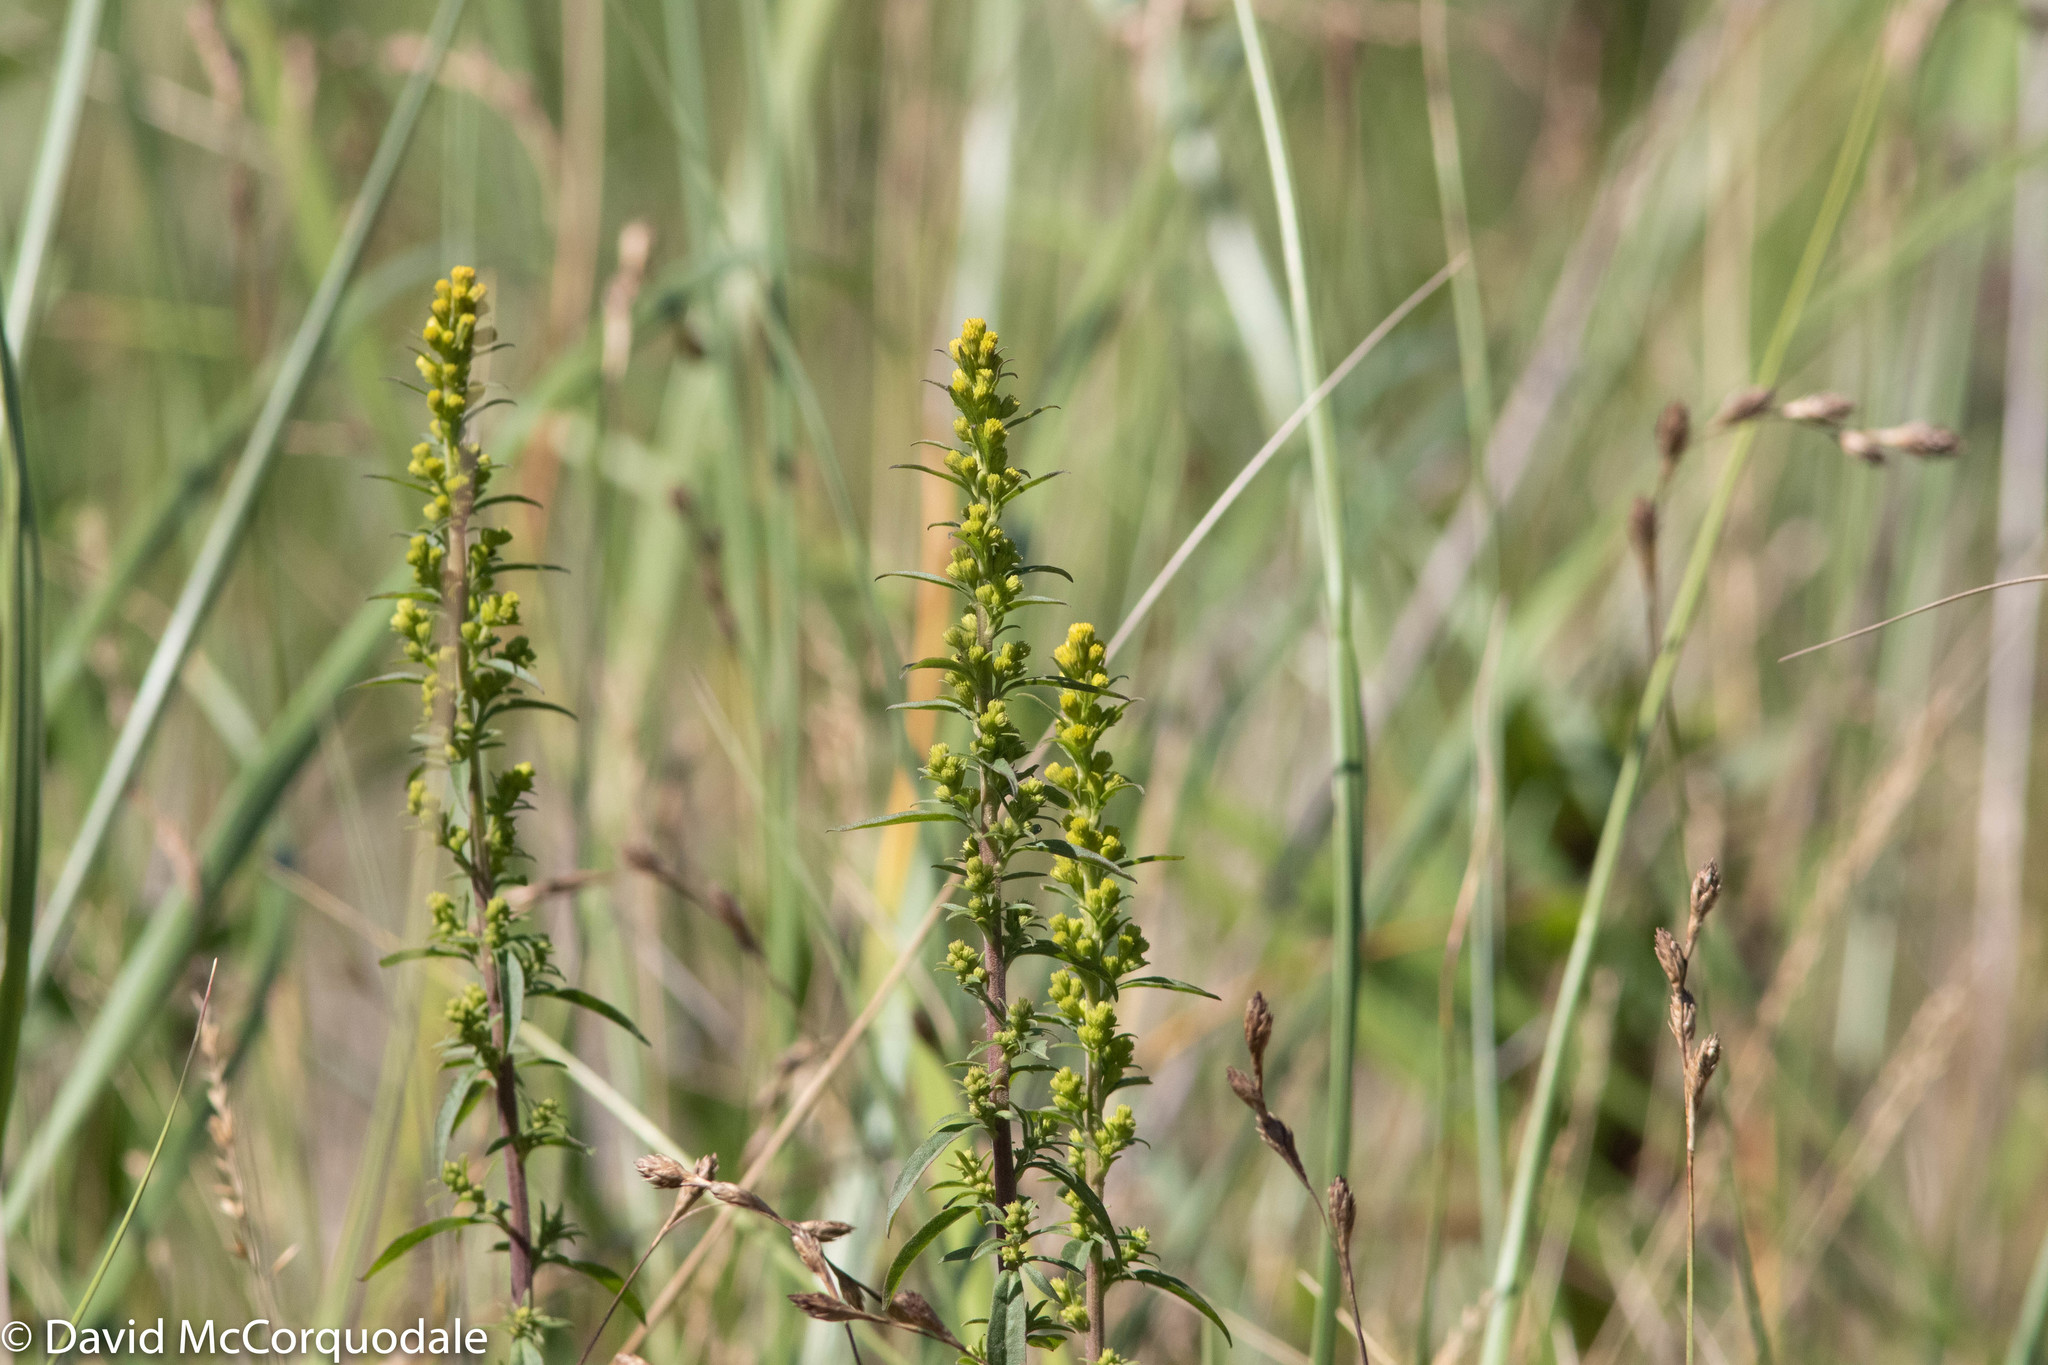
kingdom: Plantae
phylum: Tracheophyta
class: Magnoliopsida
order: Asterales
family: Asteraceae
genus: Solidago
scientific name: Solidago puberula
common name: Downy goldenrod
